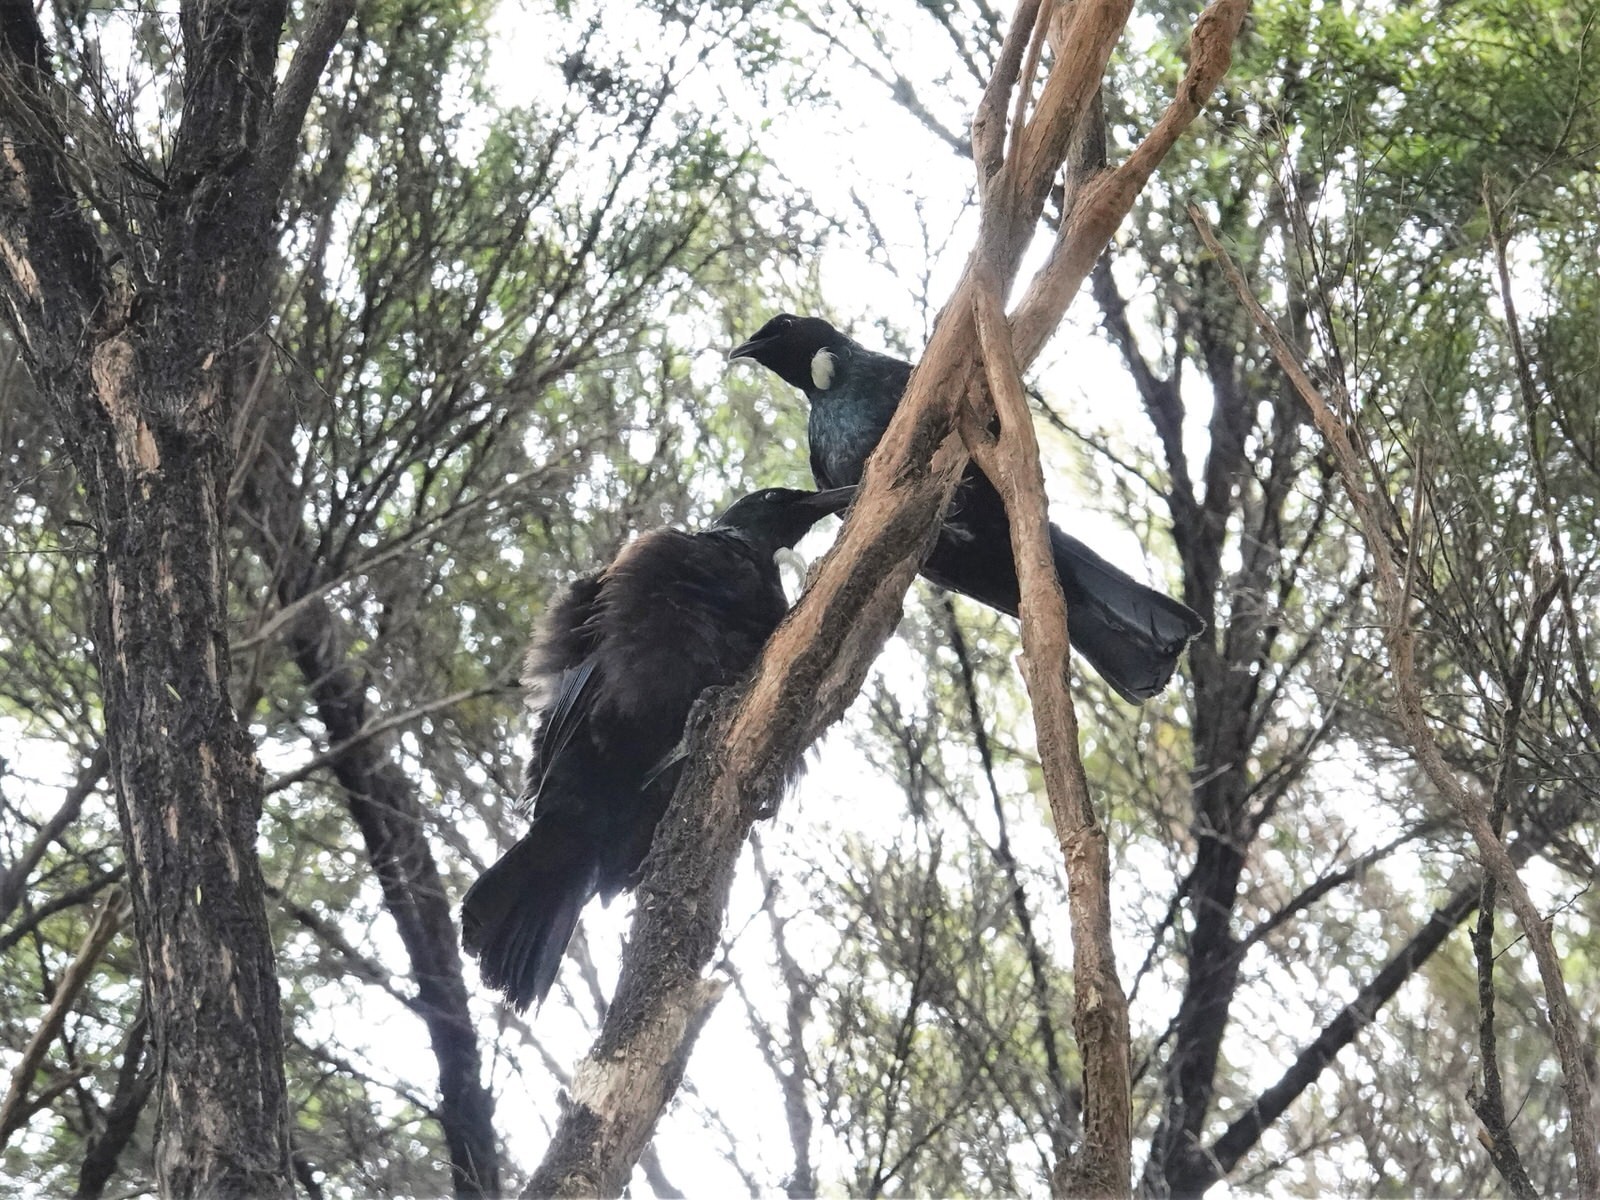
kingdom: Animalia
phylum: Chordata
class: Aves
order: Passeriformes
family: Meliphagidae
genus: Prosthemadera
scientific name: Prosthemadera novaeseelandiae
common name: Tui
